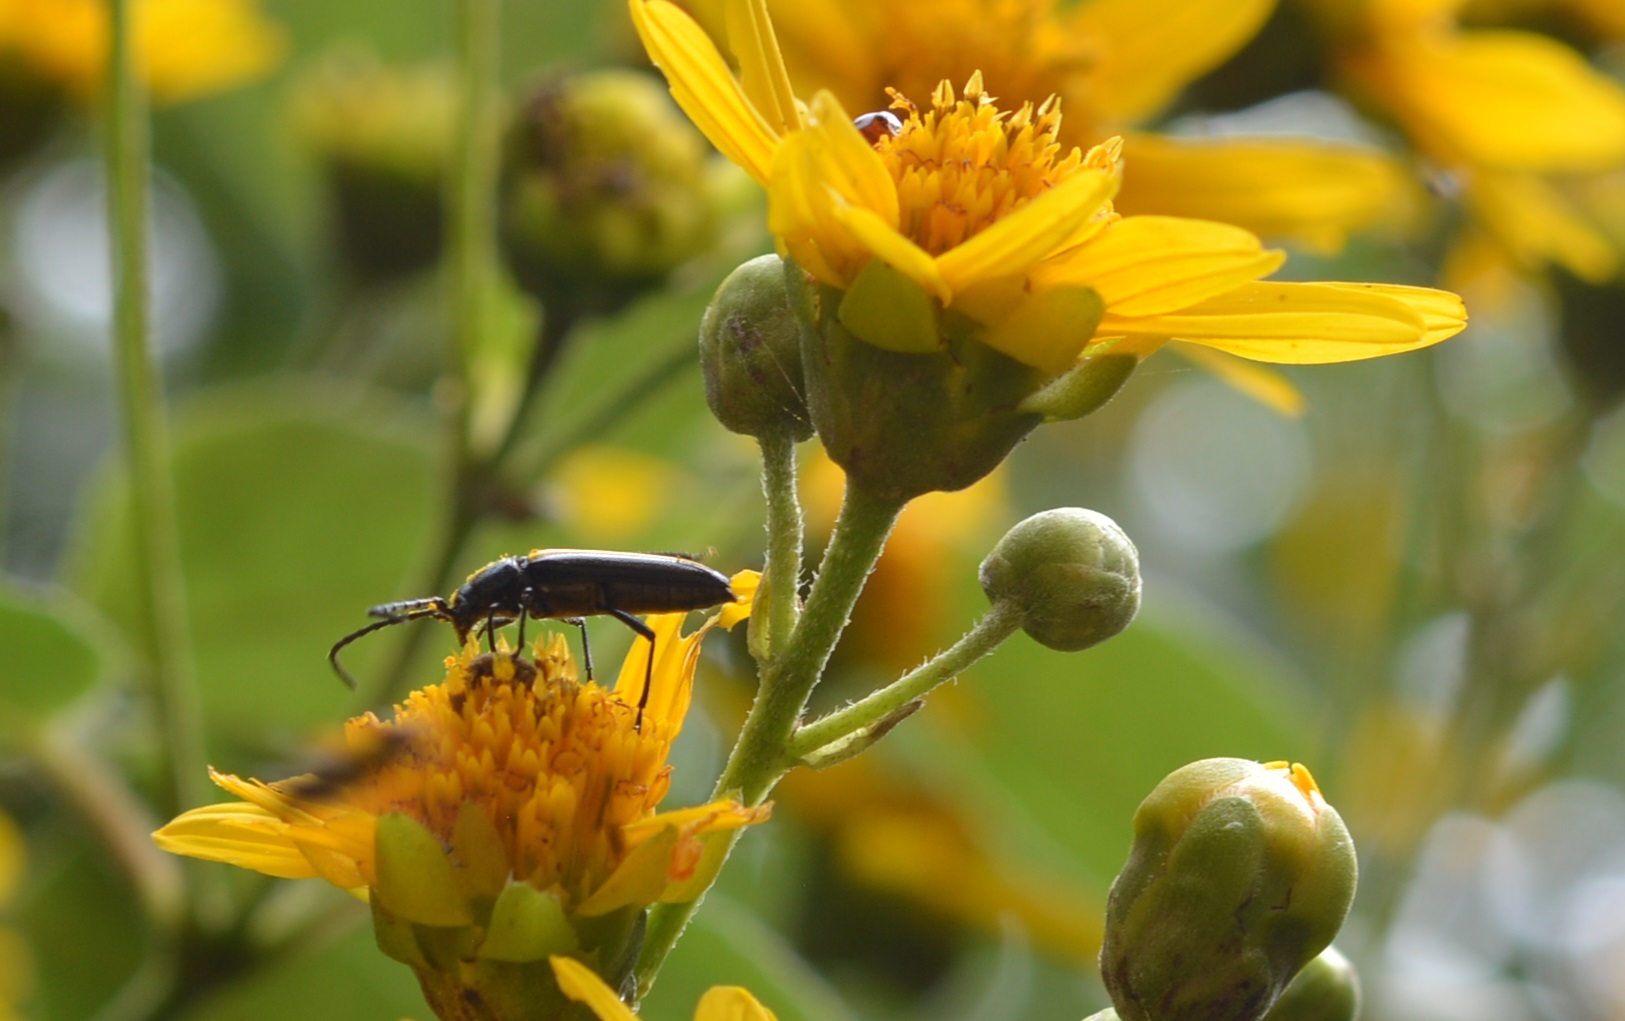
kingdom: Animalia
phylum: Arthropoda
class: Insecta
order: Coleoptera
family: Cerambycidae
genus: Agallissus
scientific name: Agallissus melaniodes
